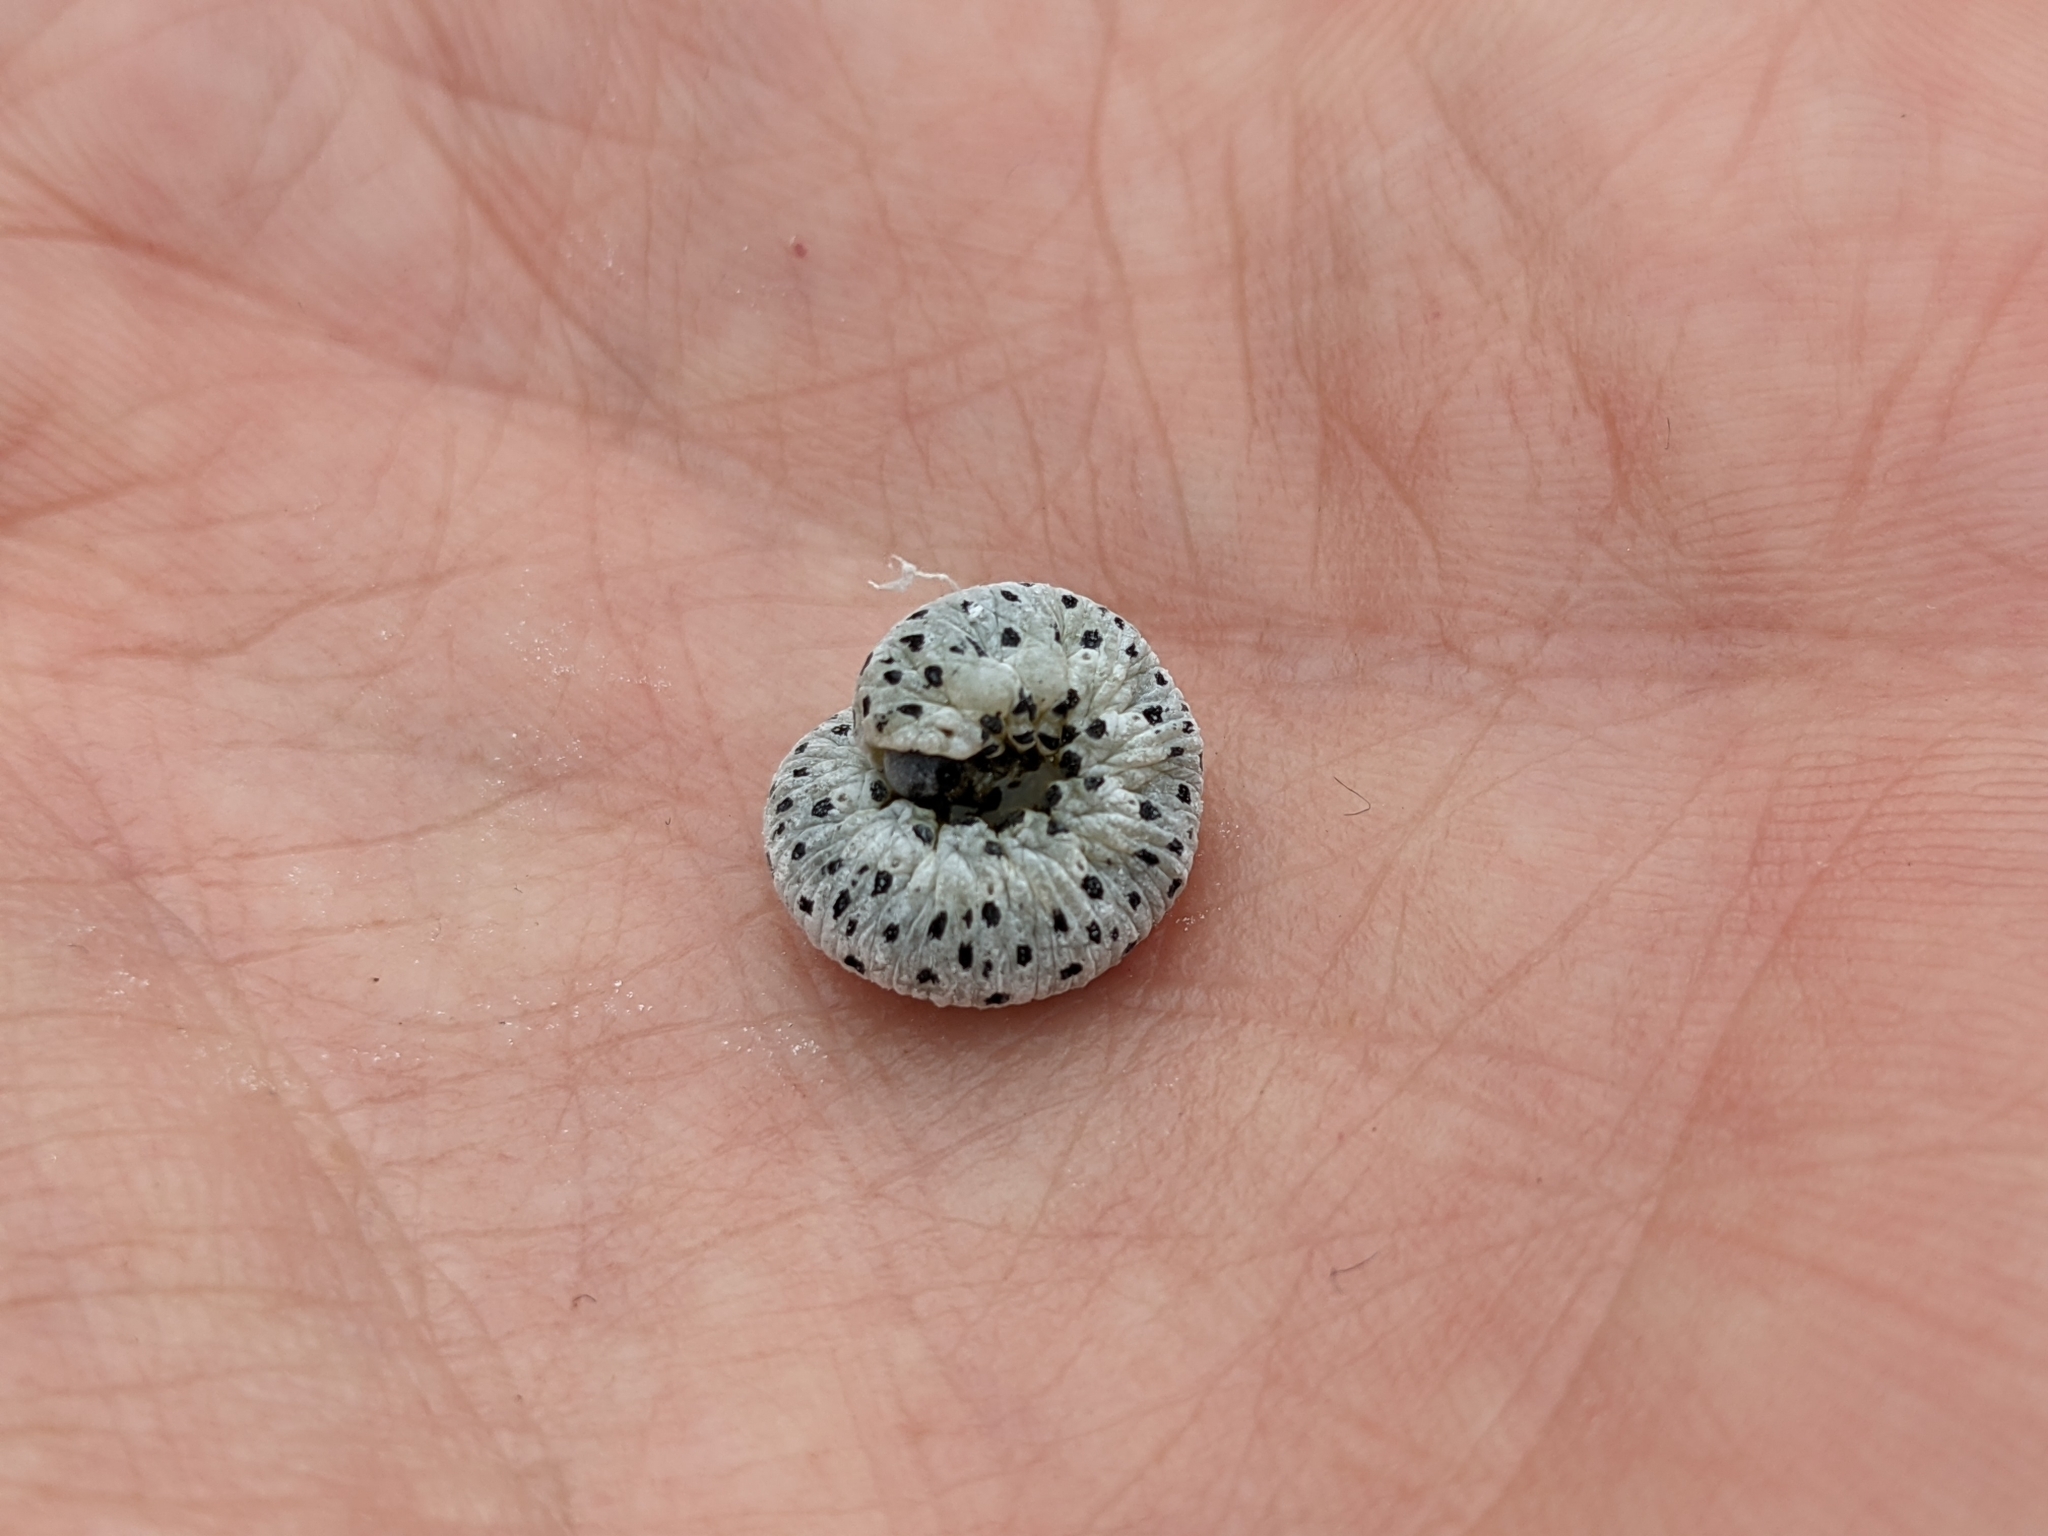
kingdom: Animalia
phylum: Arthropoda
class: Insecta
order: Hymenoptera
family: Tenthredinidae
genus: Tenthredo
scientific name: Tenthredo scrophulariae
